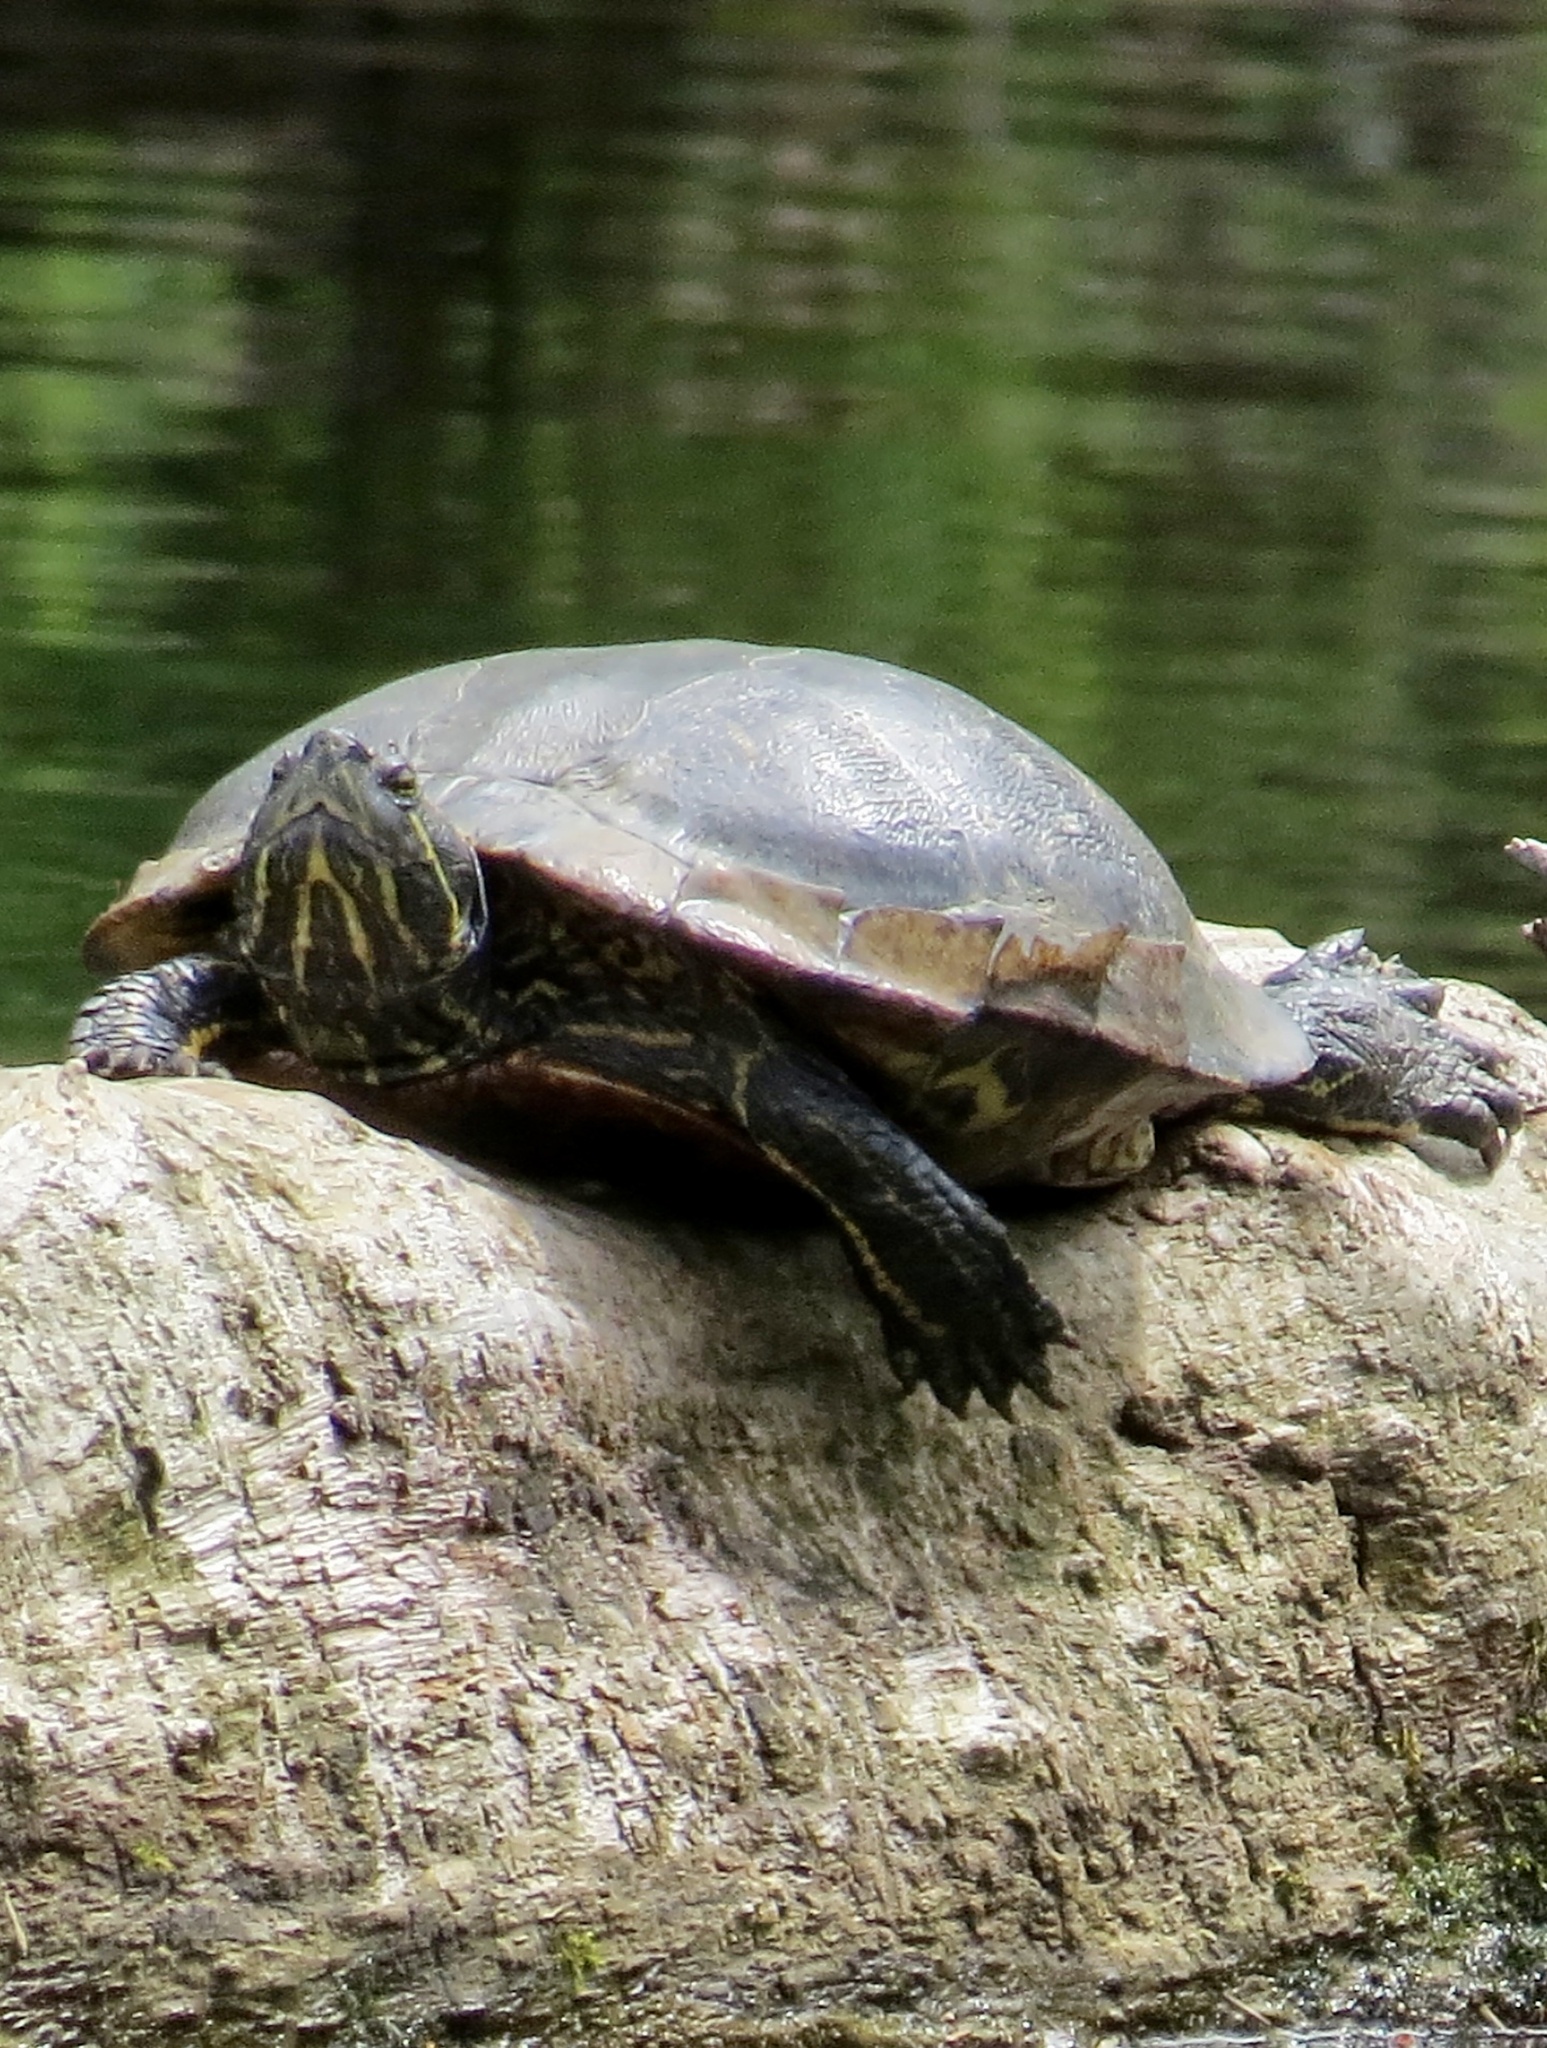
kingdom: Animalia
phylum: Chordata
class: Testudines
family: Emydidae
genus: Trachemys
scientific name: Trachemys scripta
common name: Slider
